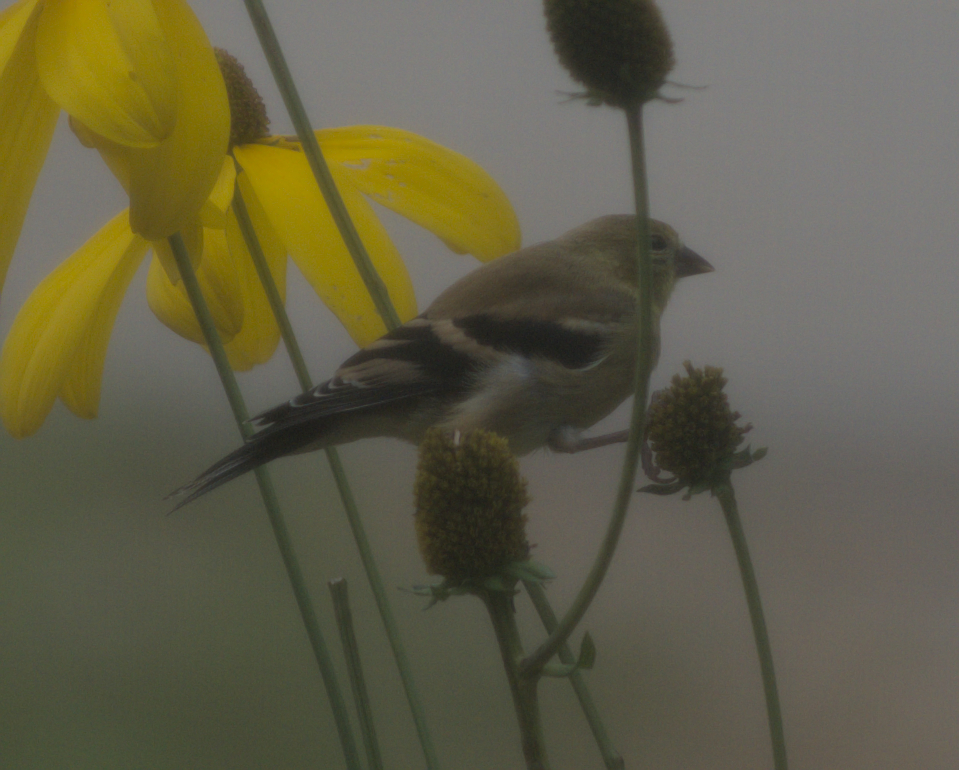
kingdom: Animalia
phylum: Chordata
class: Aves
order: Passeriformes
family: Fringillidae
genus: Spinus
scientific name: Spinus tristis
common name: American goldfinch
